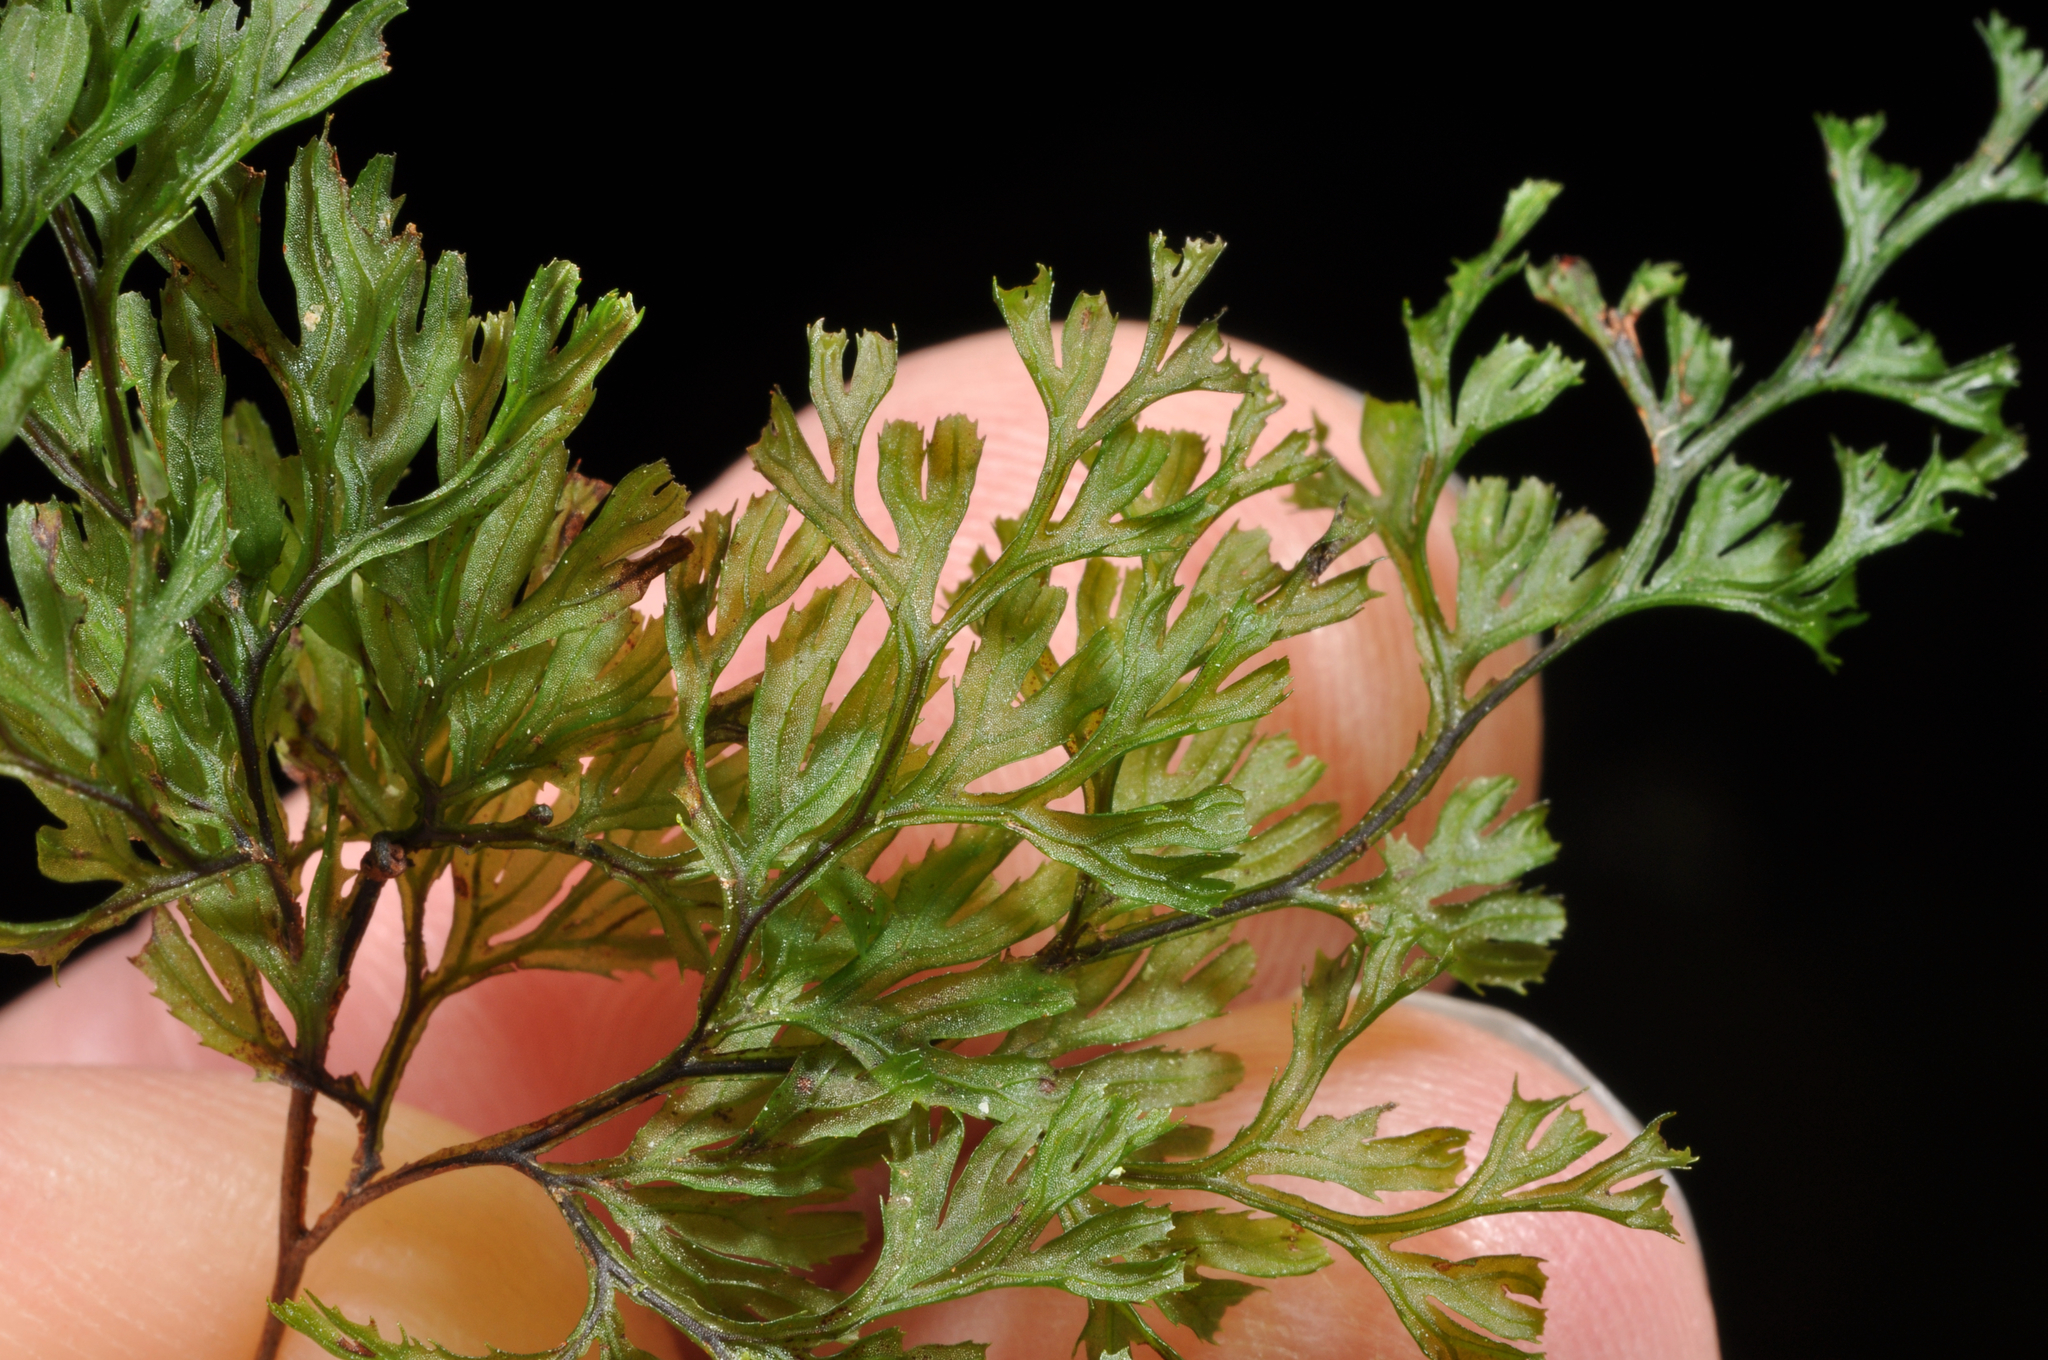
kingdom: Plantae
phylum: Tracheophyta
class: Polypodiopsida
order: Hymenophyllales
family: Hymenophyllaceae
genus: Hymenophyllum
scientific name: Hymenophyllum
